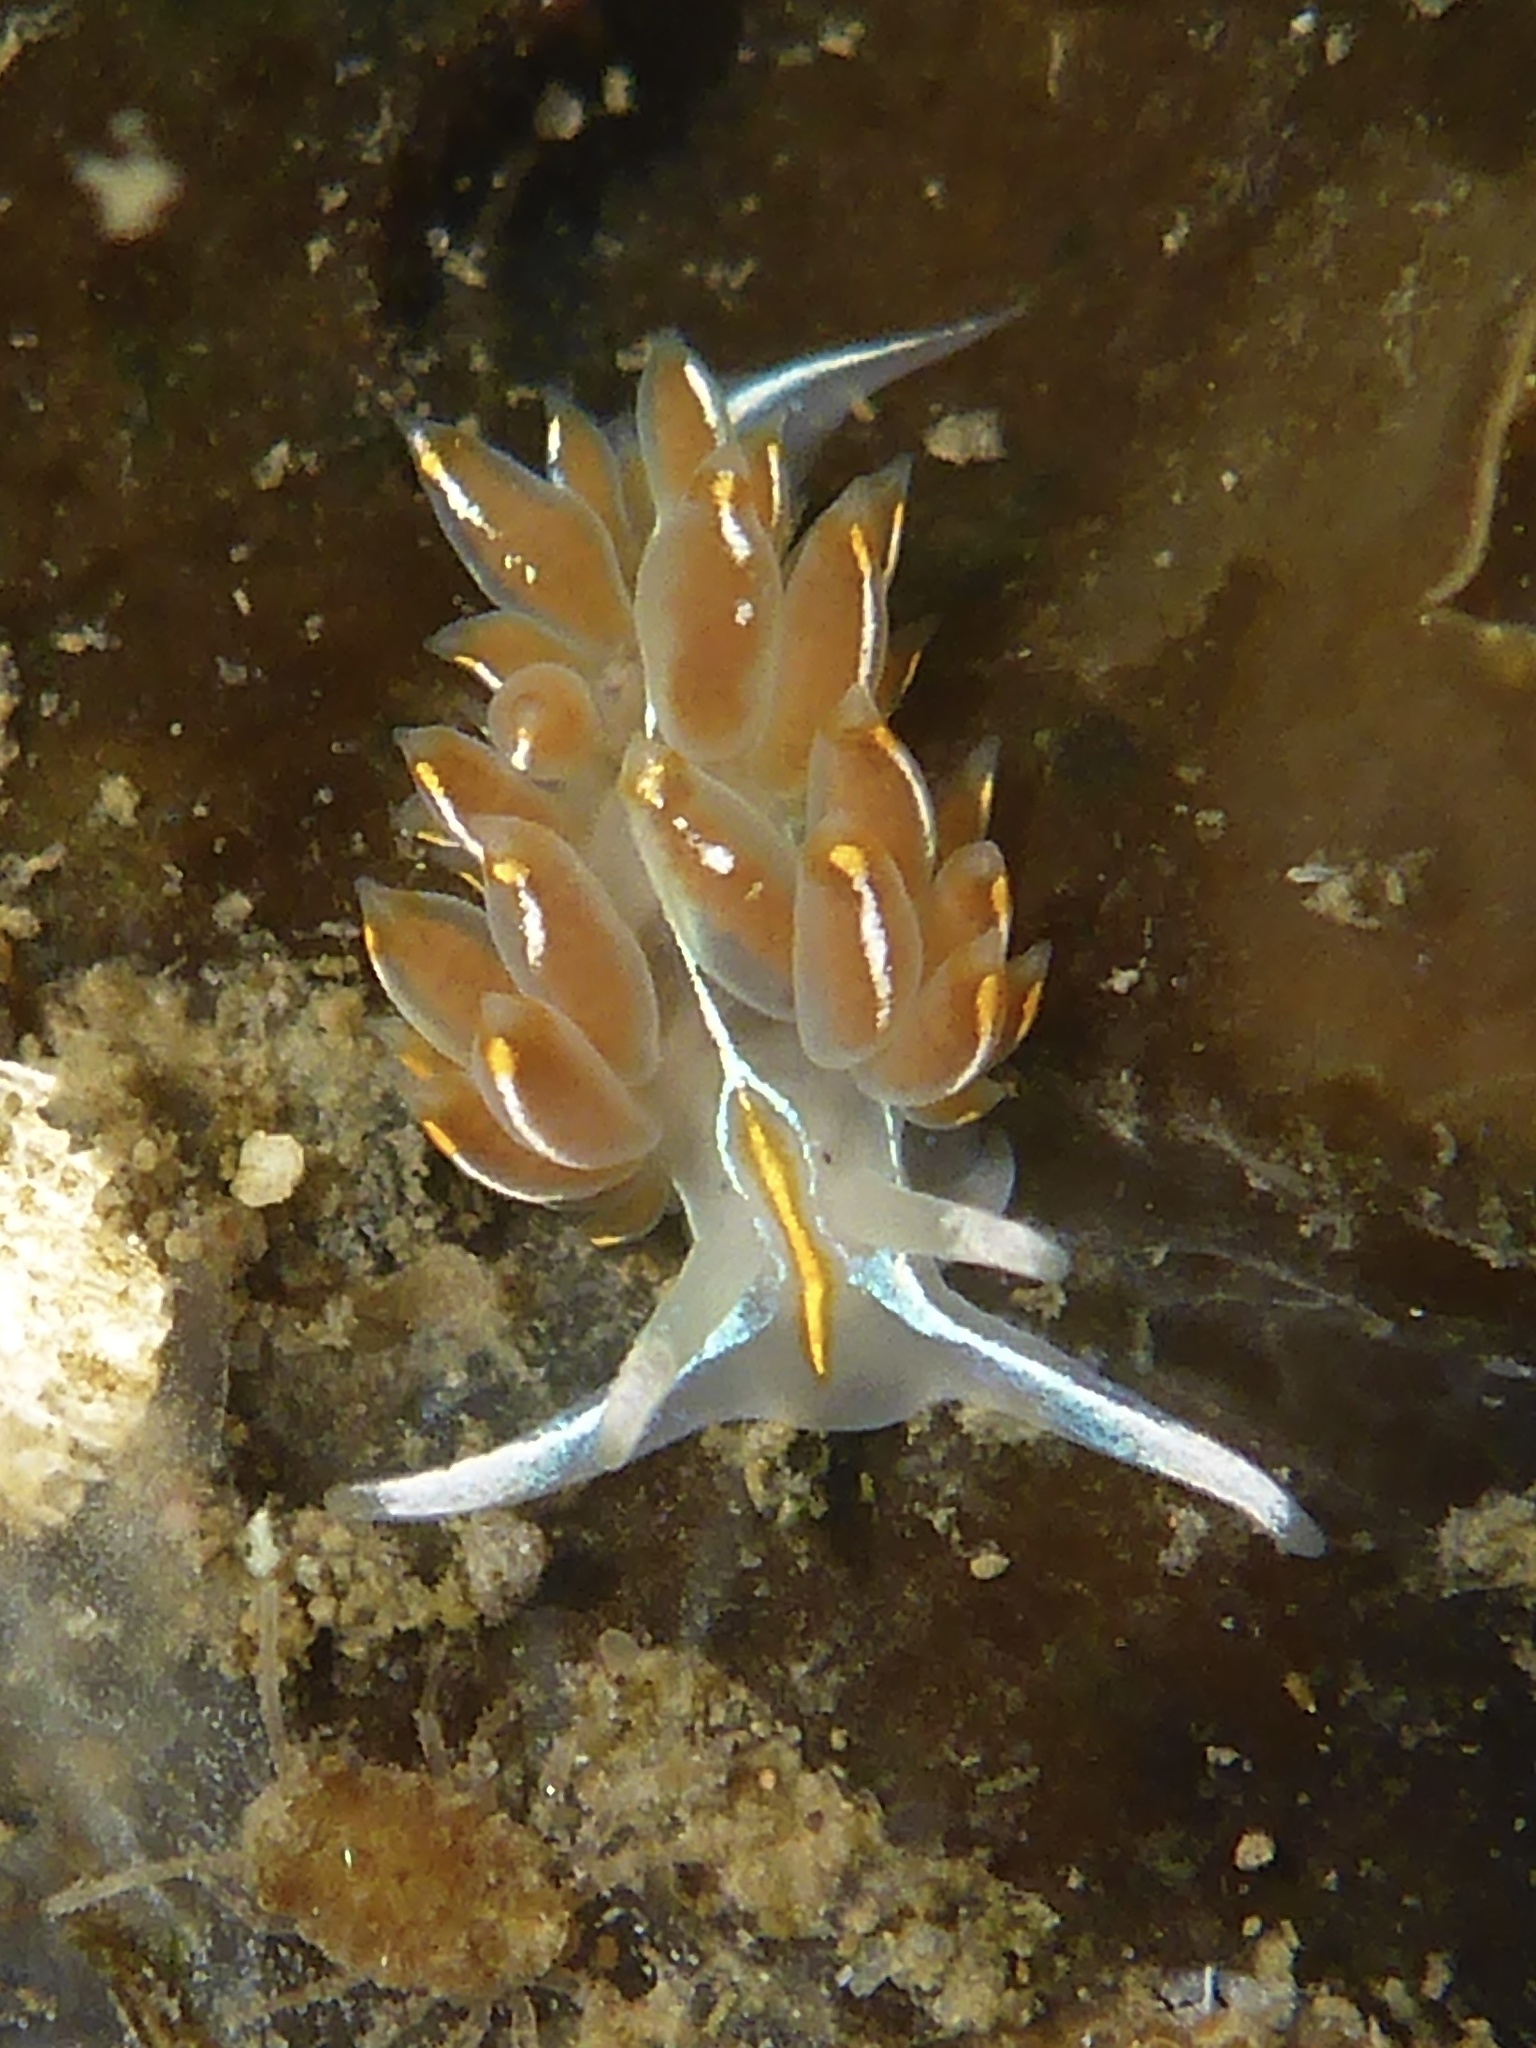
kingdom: Animalia
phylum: Mollusca
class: Gastropoda
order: Nudibranchia
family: Myrrhinidae
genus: Hermissenda
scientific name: Hermissenda crassicornis
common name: Hermissenda
